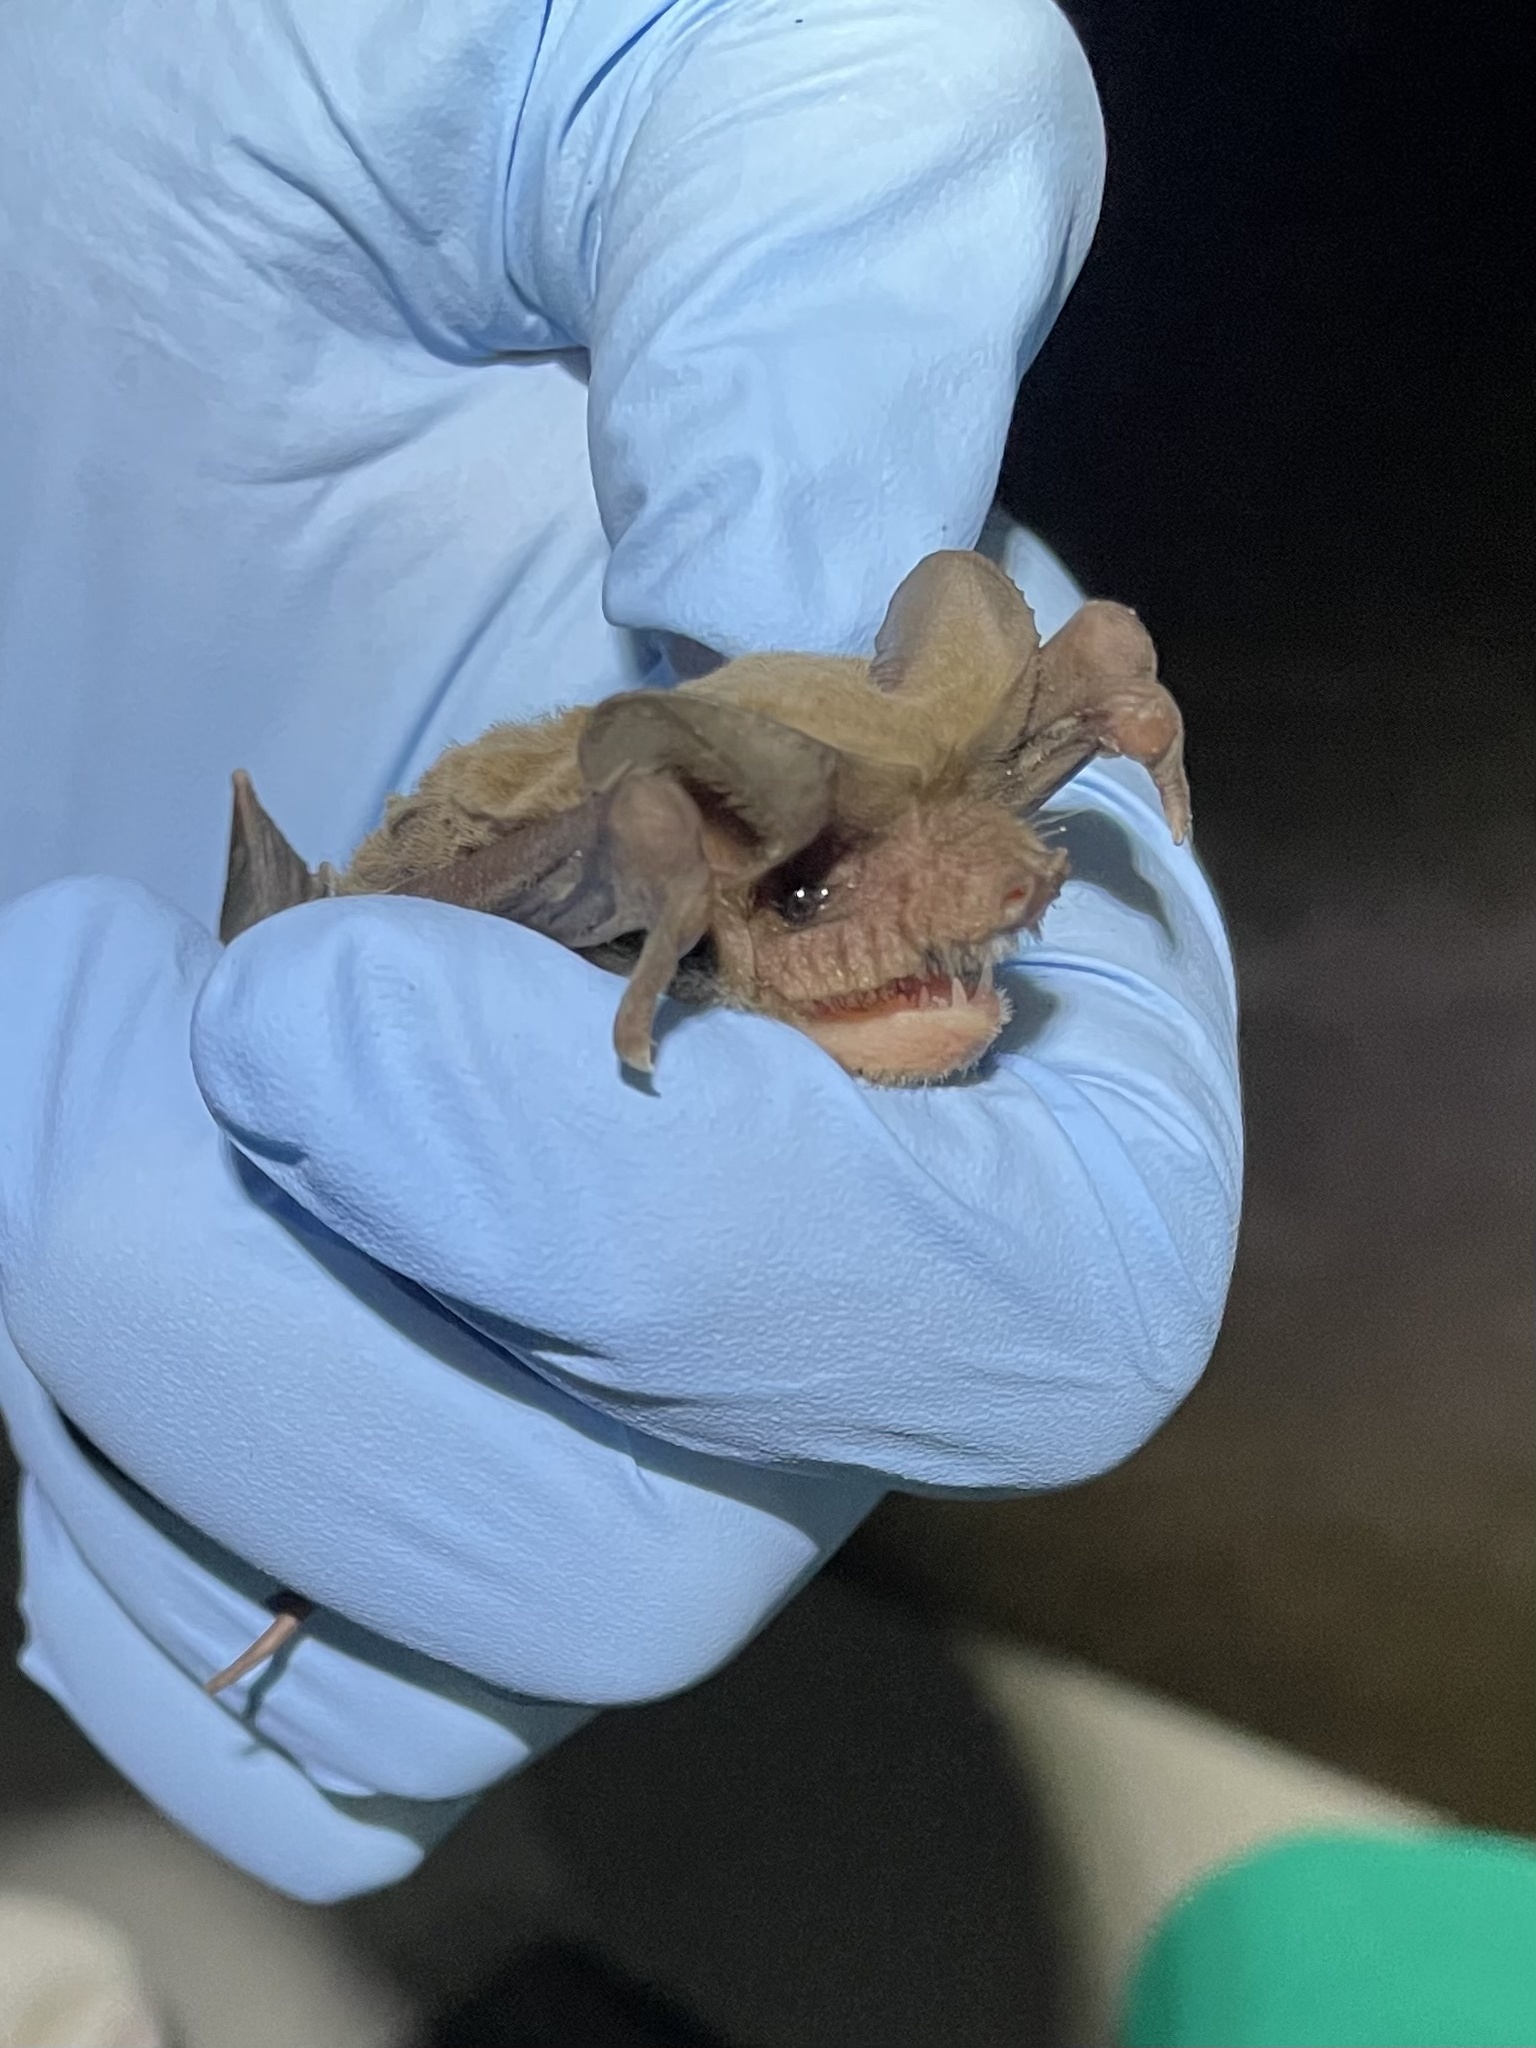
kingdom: Animalia
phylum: Chordata
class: Mammalia
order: Chiroptera
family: Molossidae
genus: Tadarida
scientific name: Tadarida brasiliensis
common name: Mexican free-tailed bat
